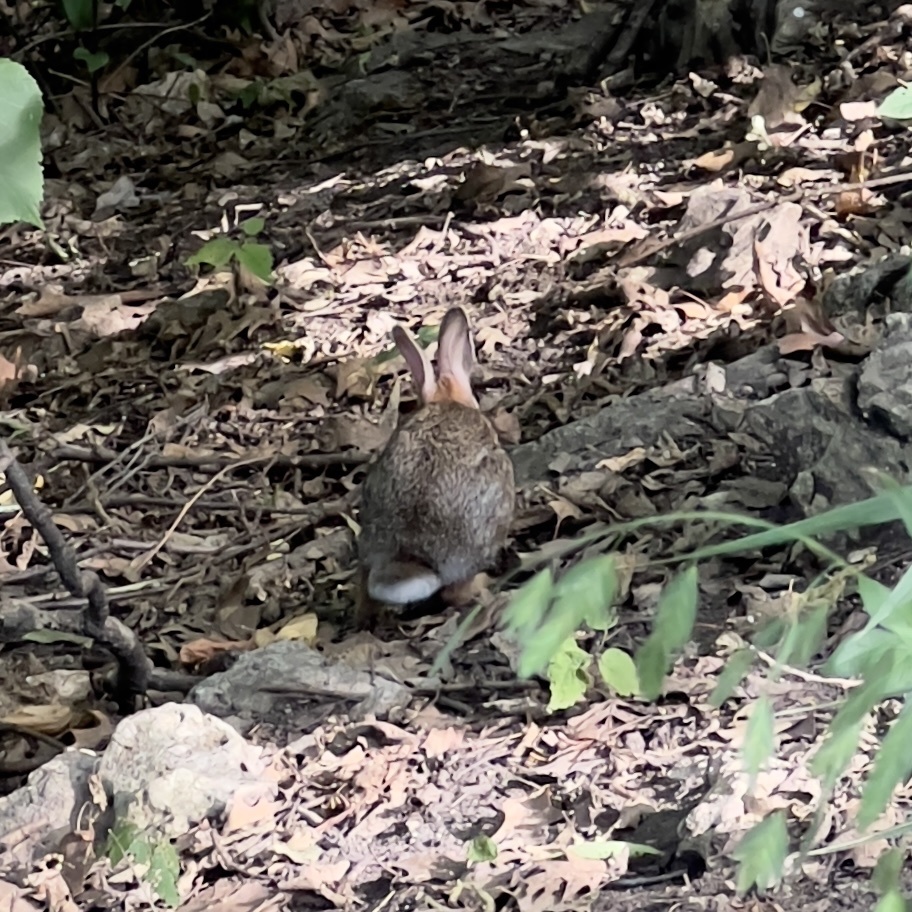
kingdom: Animalia
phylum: Chordata
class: Mammalia
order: Lagomorpha
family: Leporidae
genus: Sylvilagus
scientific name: Sylvilagus floridanus
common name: Eastern cottontail
